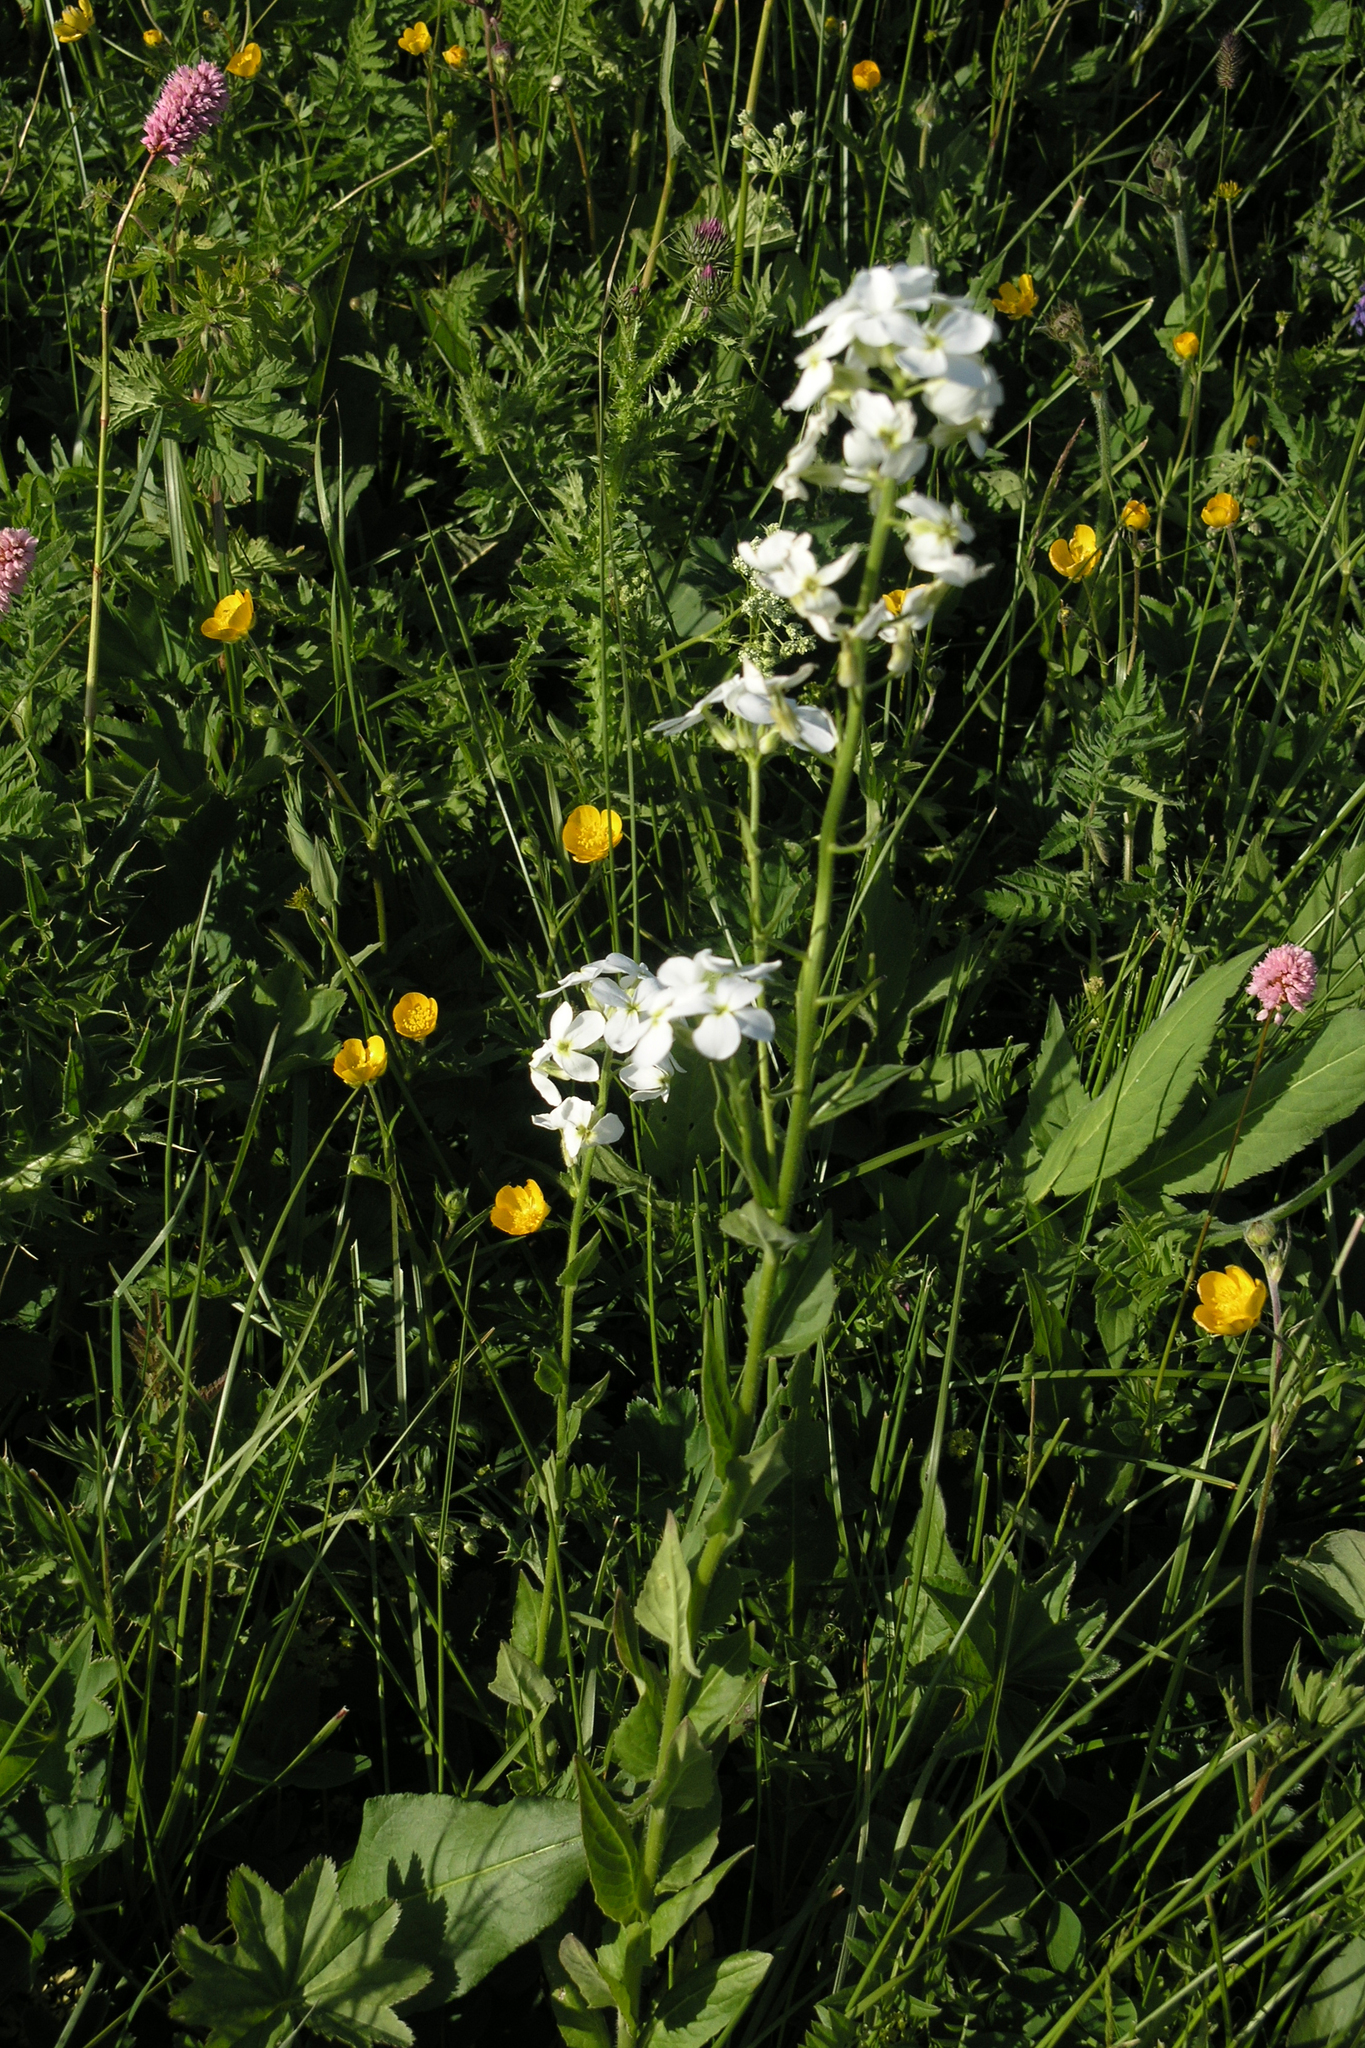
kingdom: Plantae
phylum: Tracheophyta
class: Magnoliopsida
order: Brassicales
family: Brassicaceae
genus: Hesperis
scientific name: Hesperis matronalis
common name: Dame's-violet
